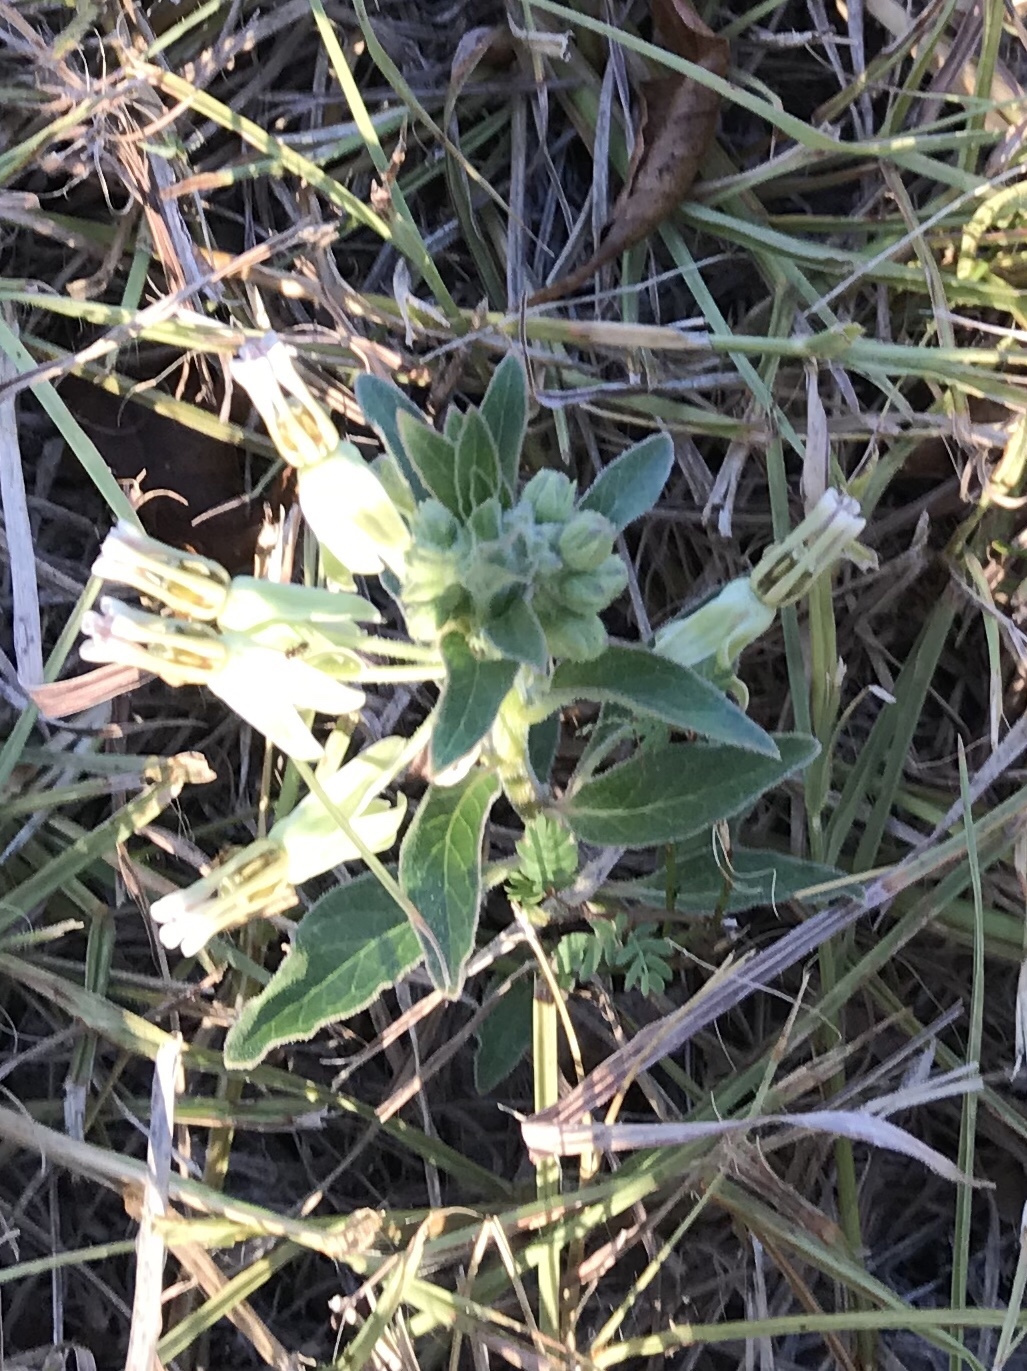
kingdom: Plantae
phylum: Tracheophyta
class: Magnoliopsida
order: Gentianales
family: Apocynaceae
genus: Asclepias
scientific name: Asclepias oenotheroides
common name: Zizotes milkweed
